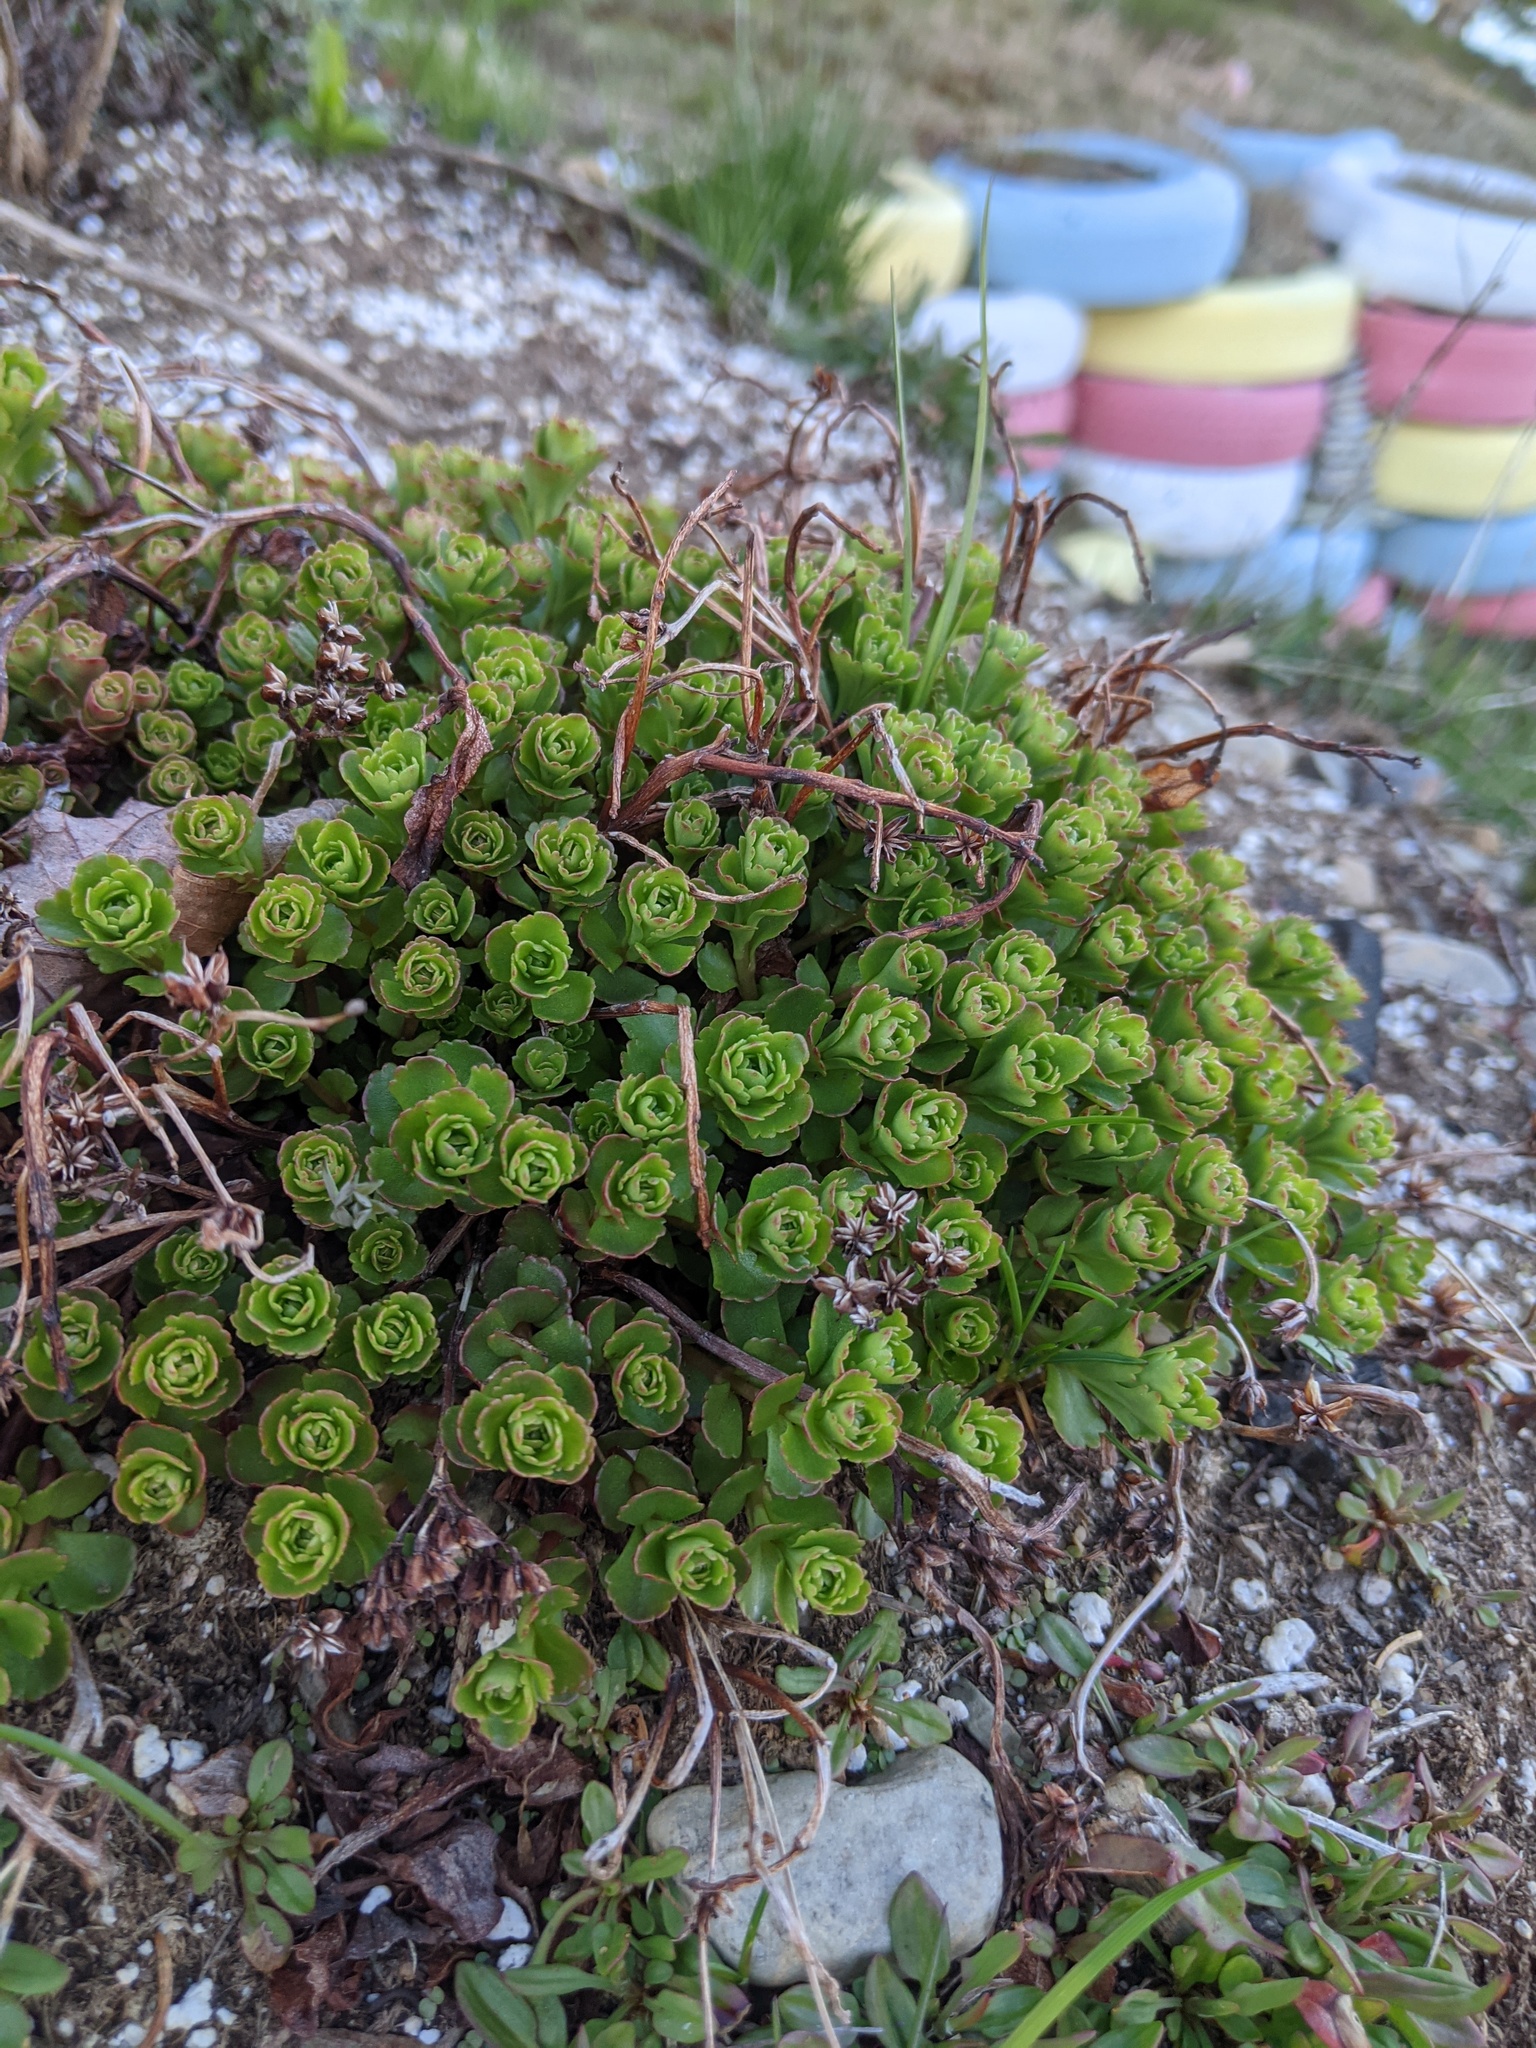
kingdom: Plantae
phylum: Tracheophyta
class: Magnoliopsida
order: Saxifragales
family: Crassulaceae
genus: Phedimus
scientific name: Phedimus spurius
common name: Caucasian stonecrop
